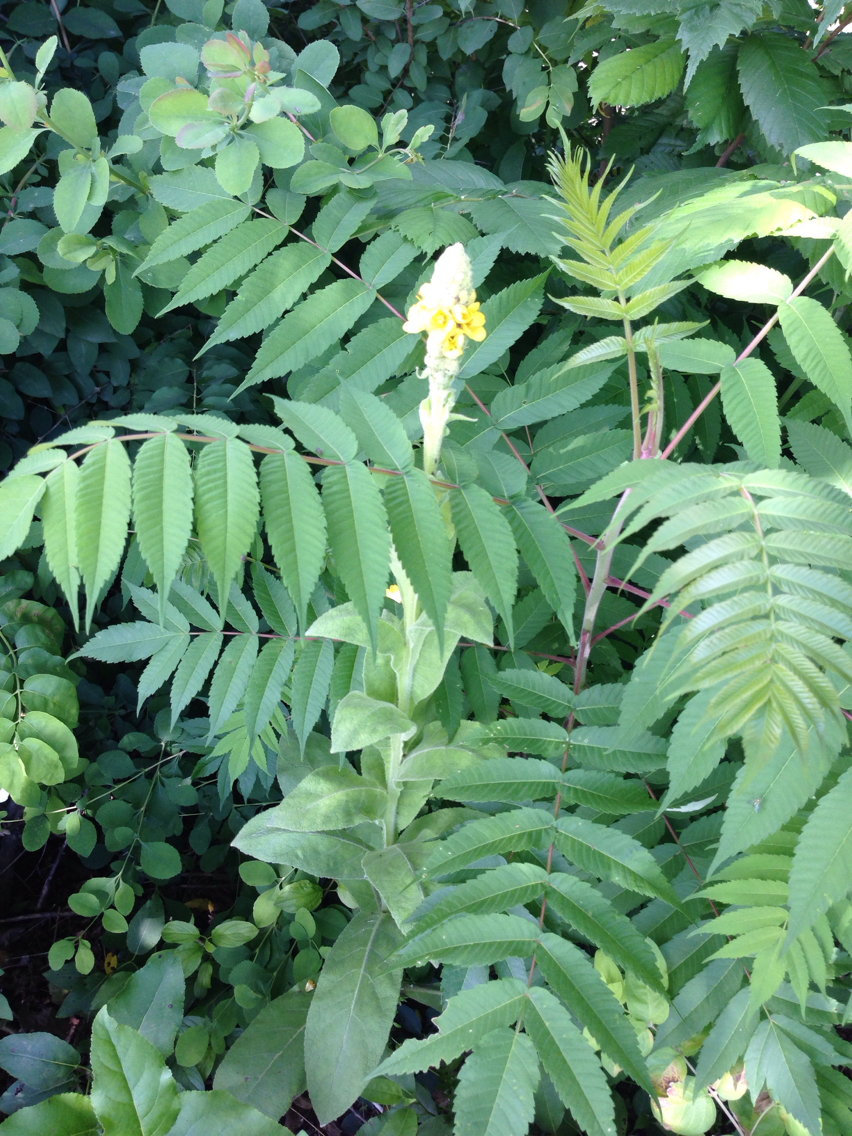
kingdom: Plantae
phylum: Tracheophyta
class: Magnoliopsida
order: Lamiales
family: Scrophulariaceae
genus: Verbascum
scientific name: Verbascum thapsus
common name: Common mullein
